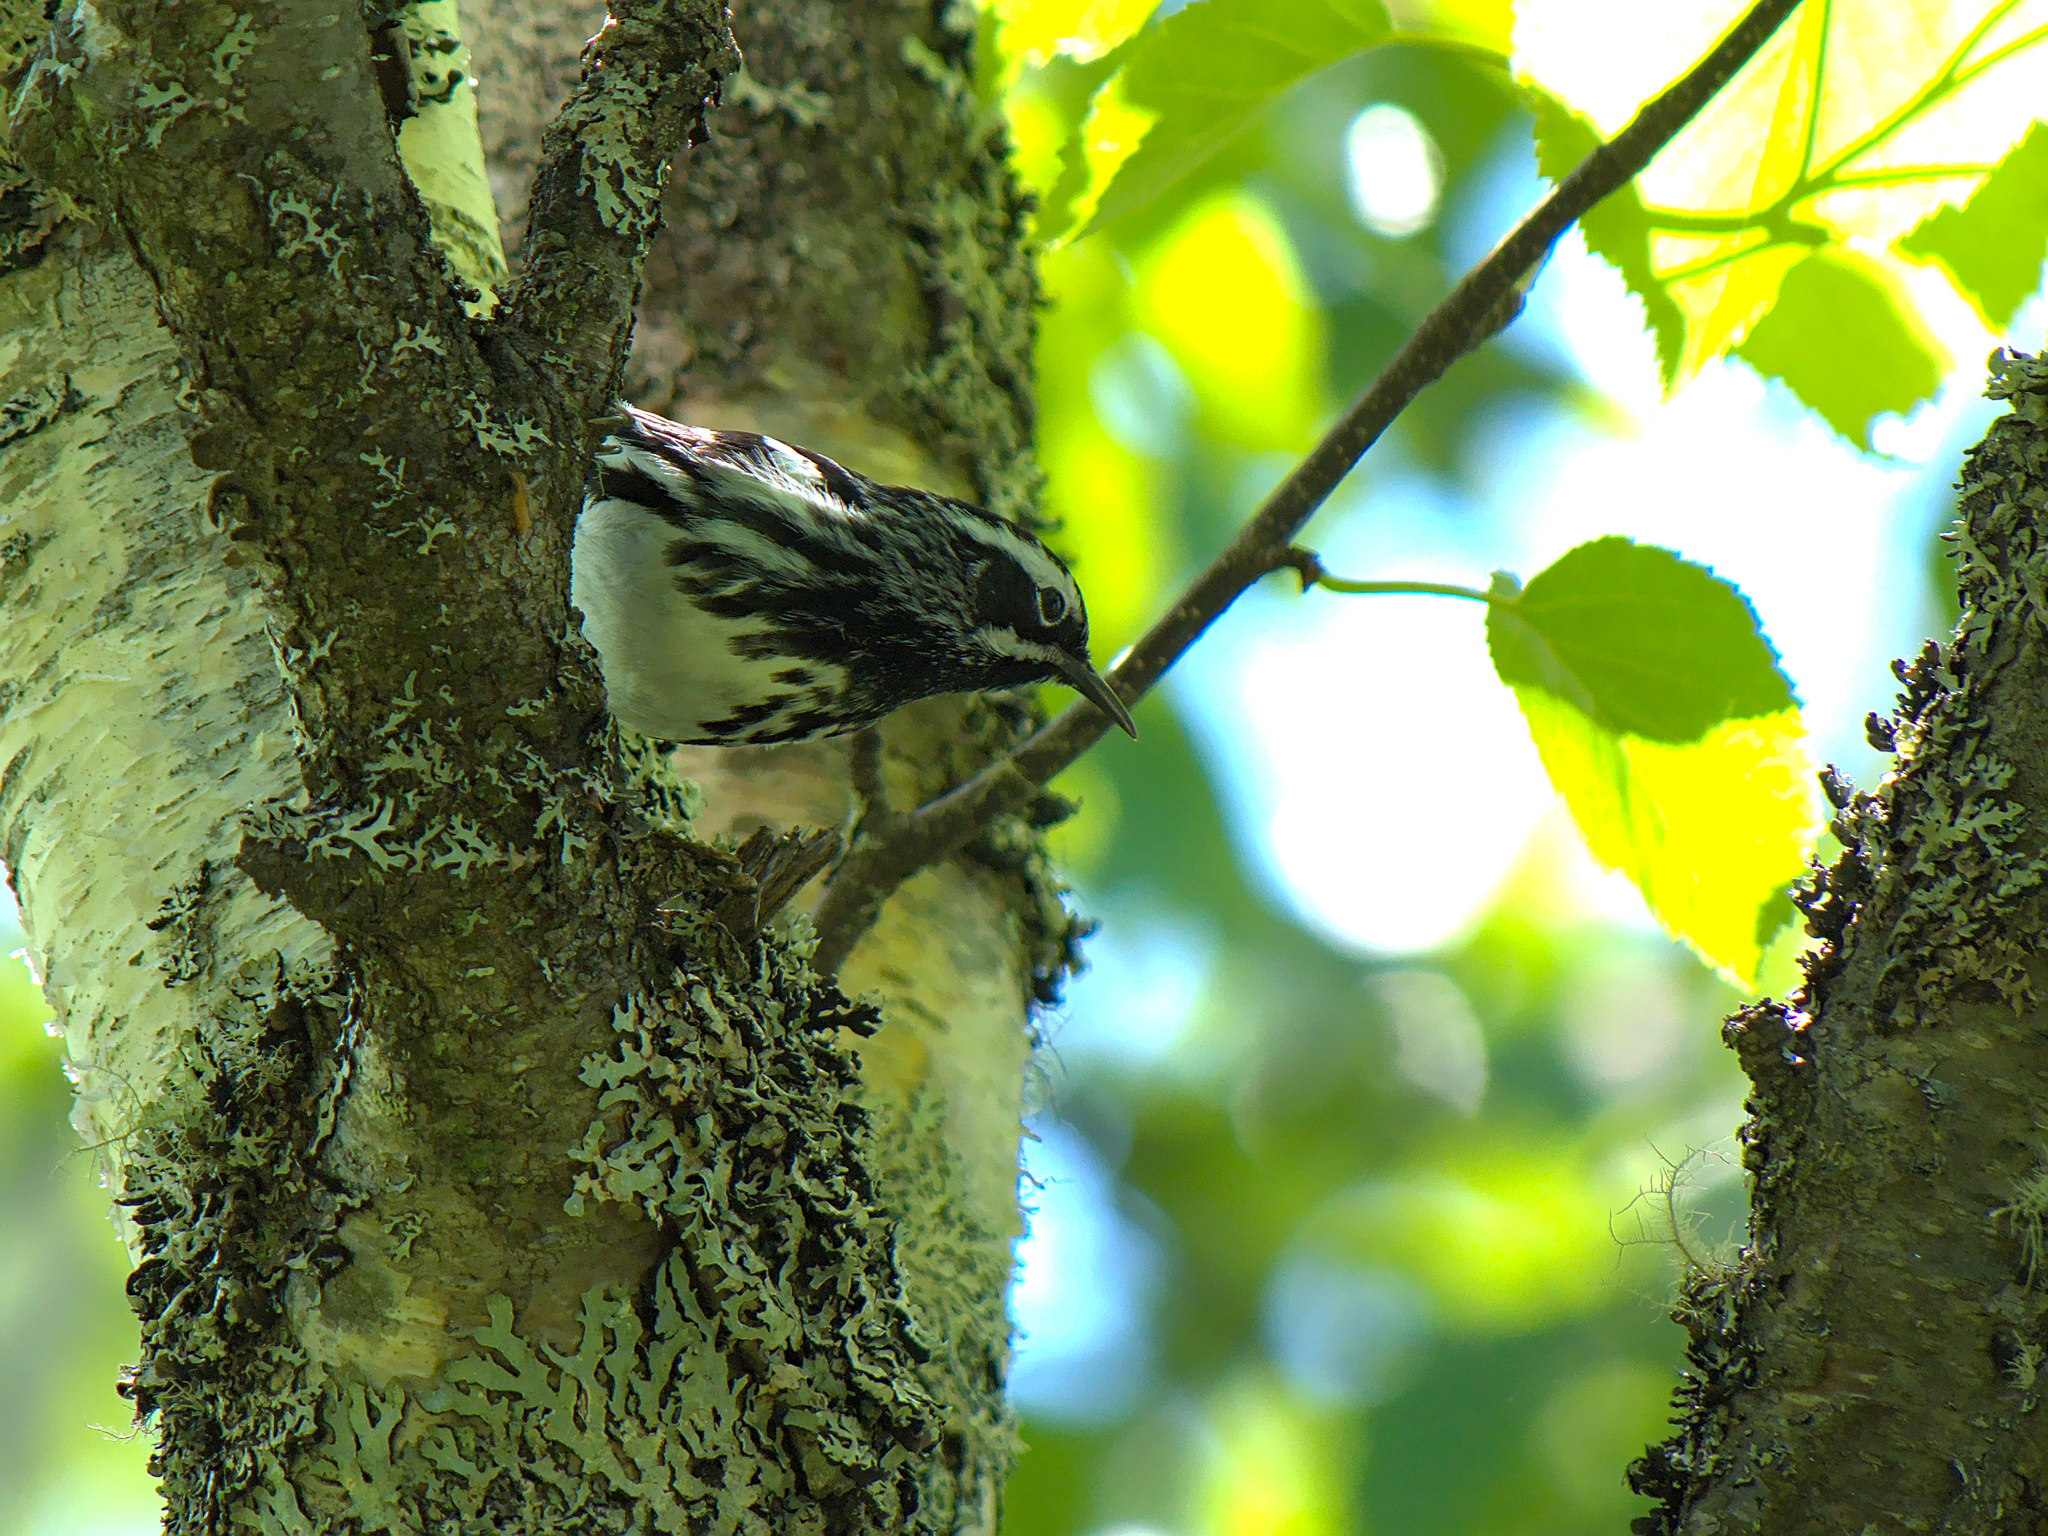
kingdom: Animalia
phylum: Chordata
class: Aves
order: Passeriformes
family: Parulidae
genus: Mniotilta
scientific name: Mniotilta varia
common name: Black-and-white warbler
